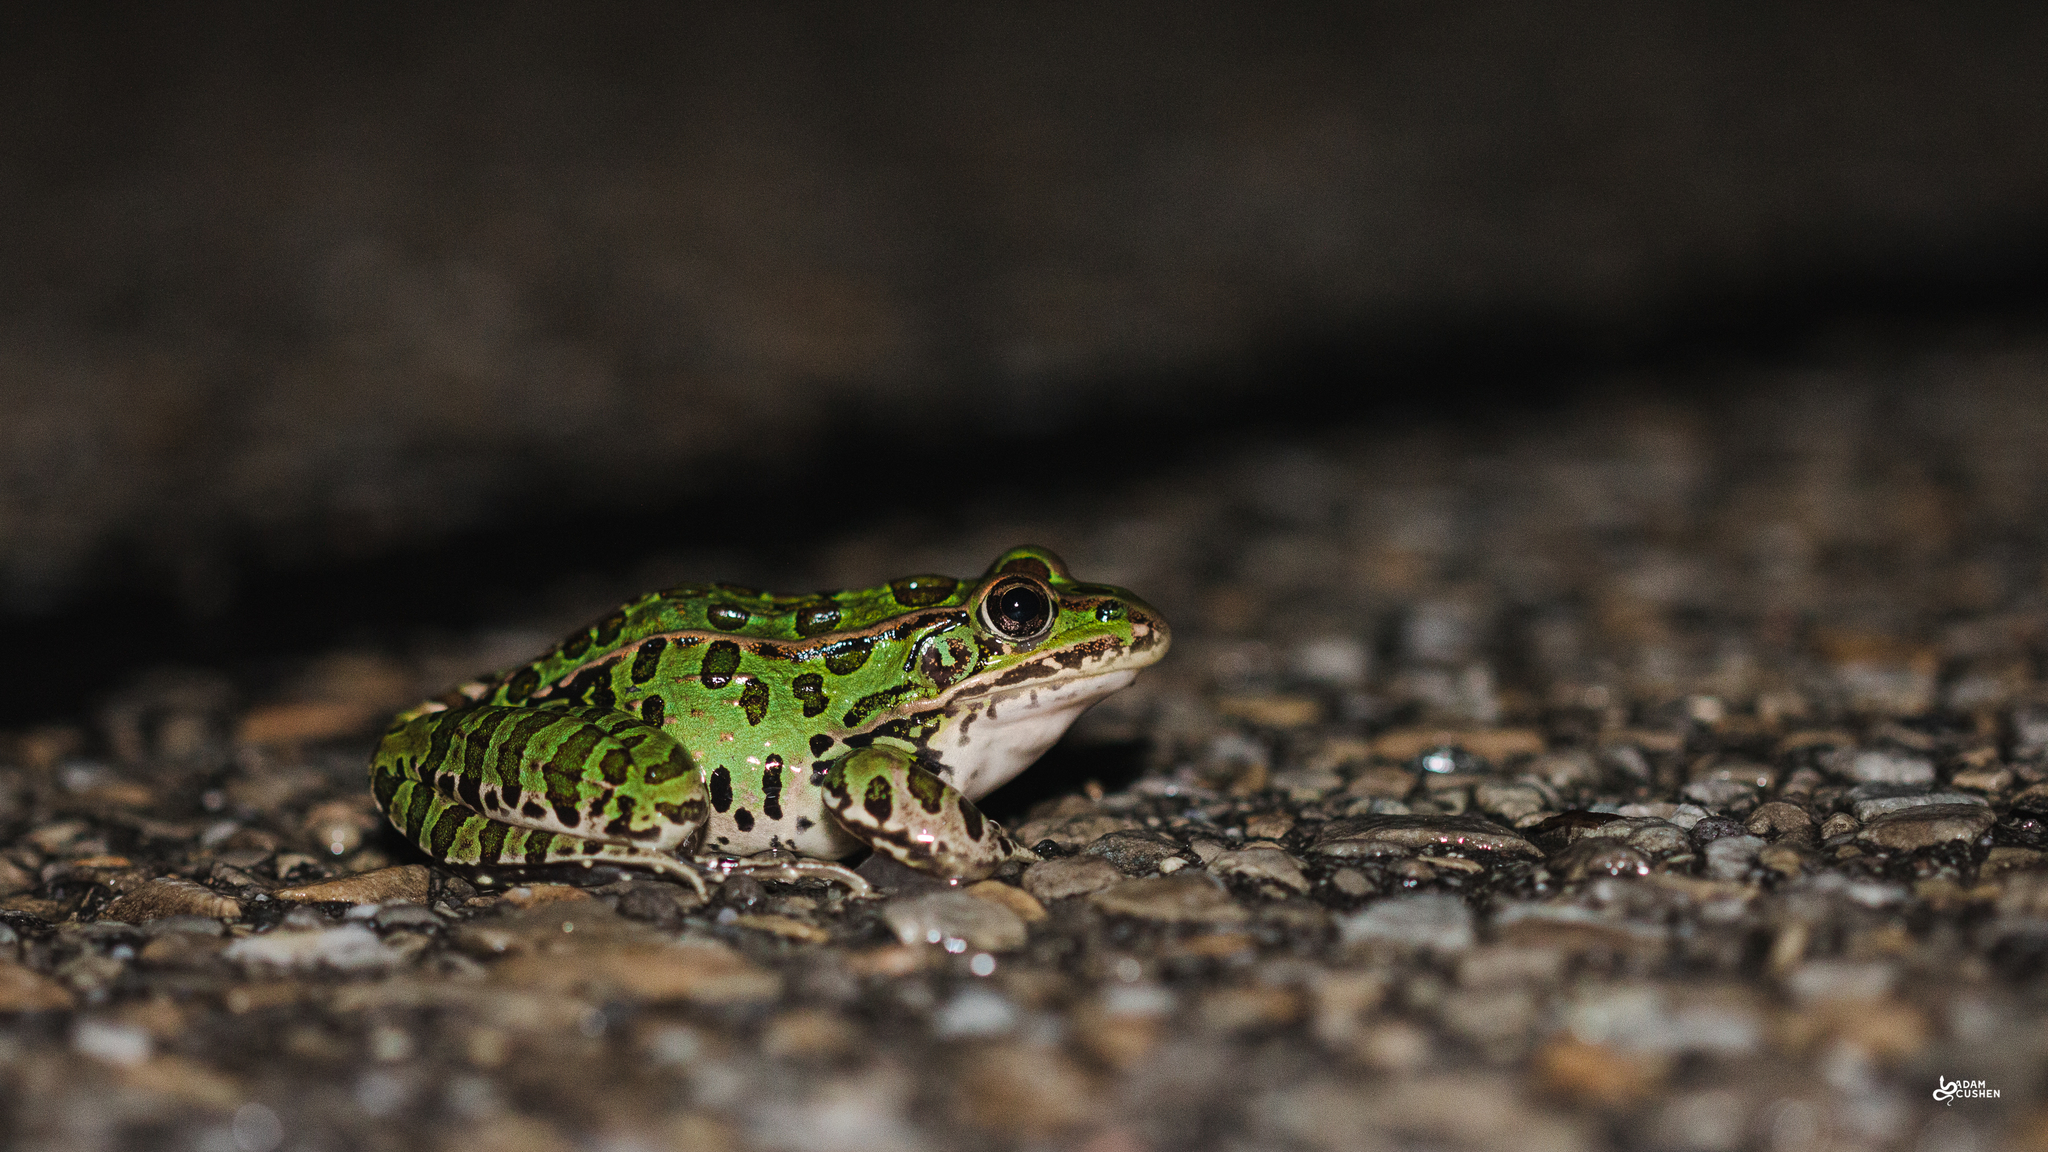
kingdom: Animalia
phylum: Chordata
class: Amphibia
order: Anura
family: Ranidae
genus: Lithobates
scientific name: Lithobates pipiens
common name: Northern leopard frog
